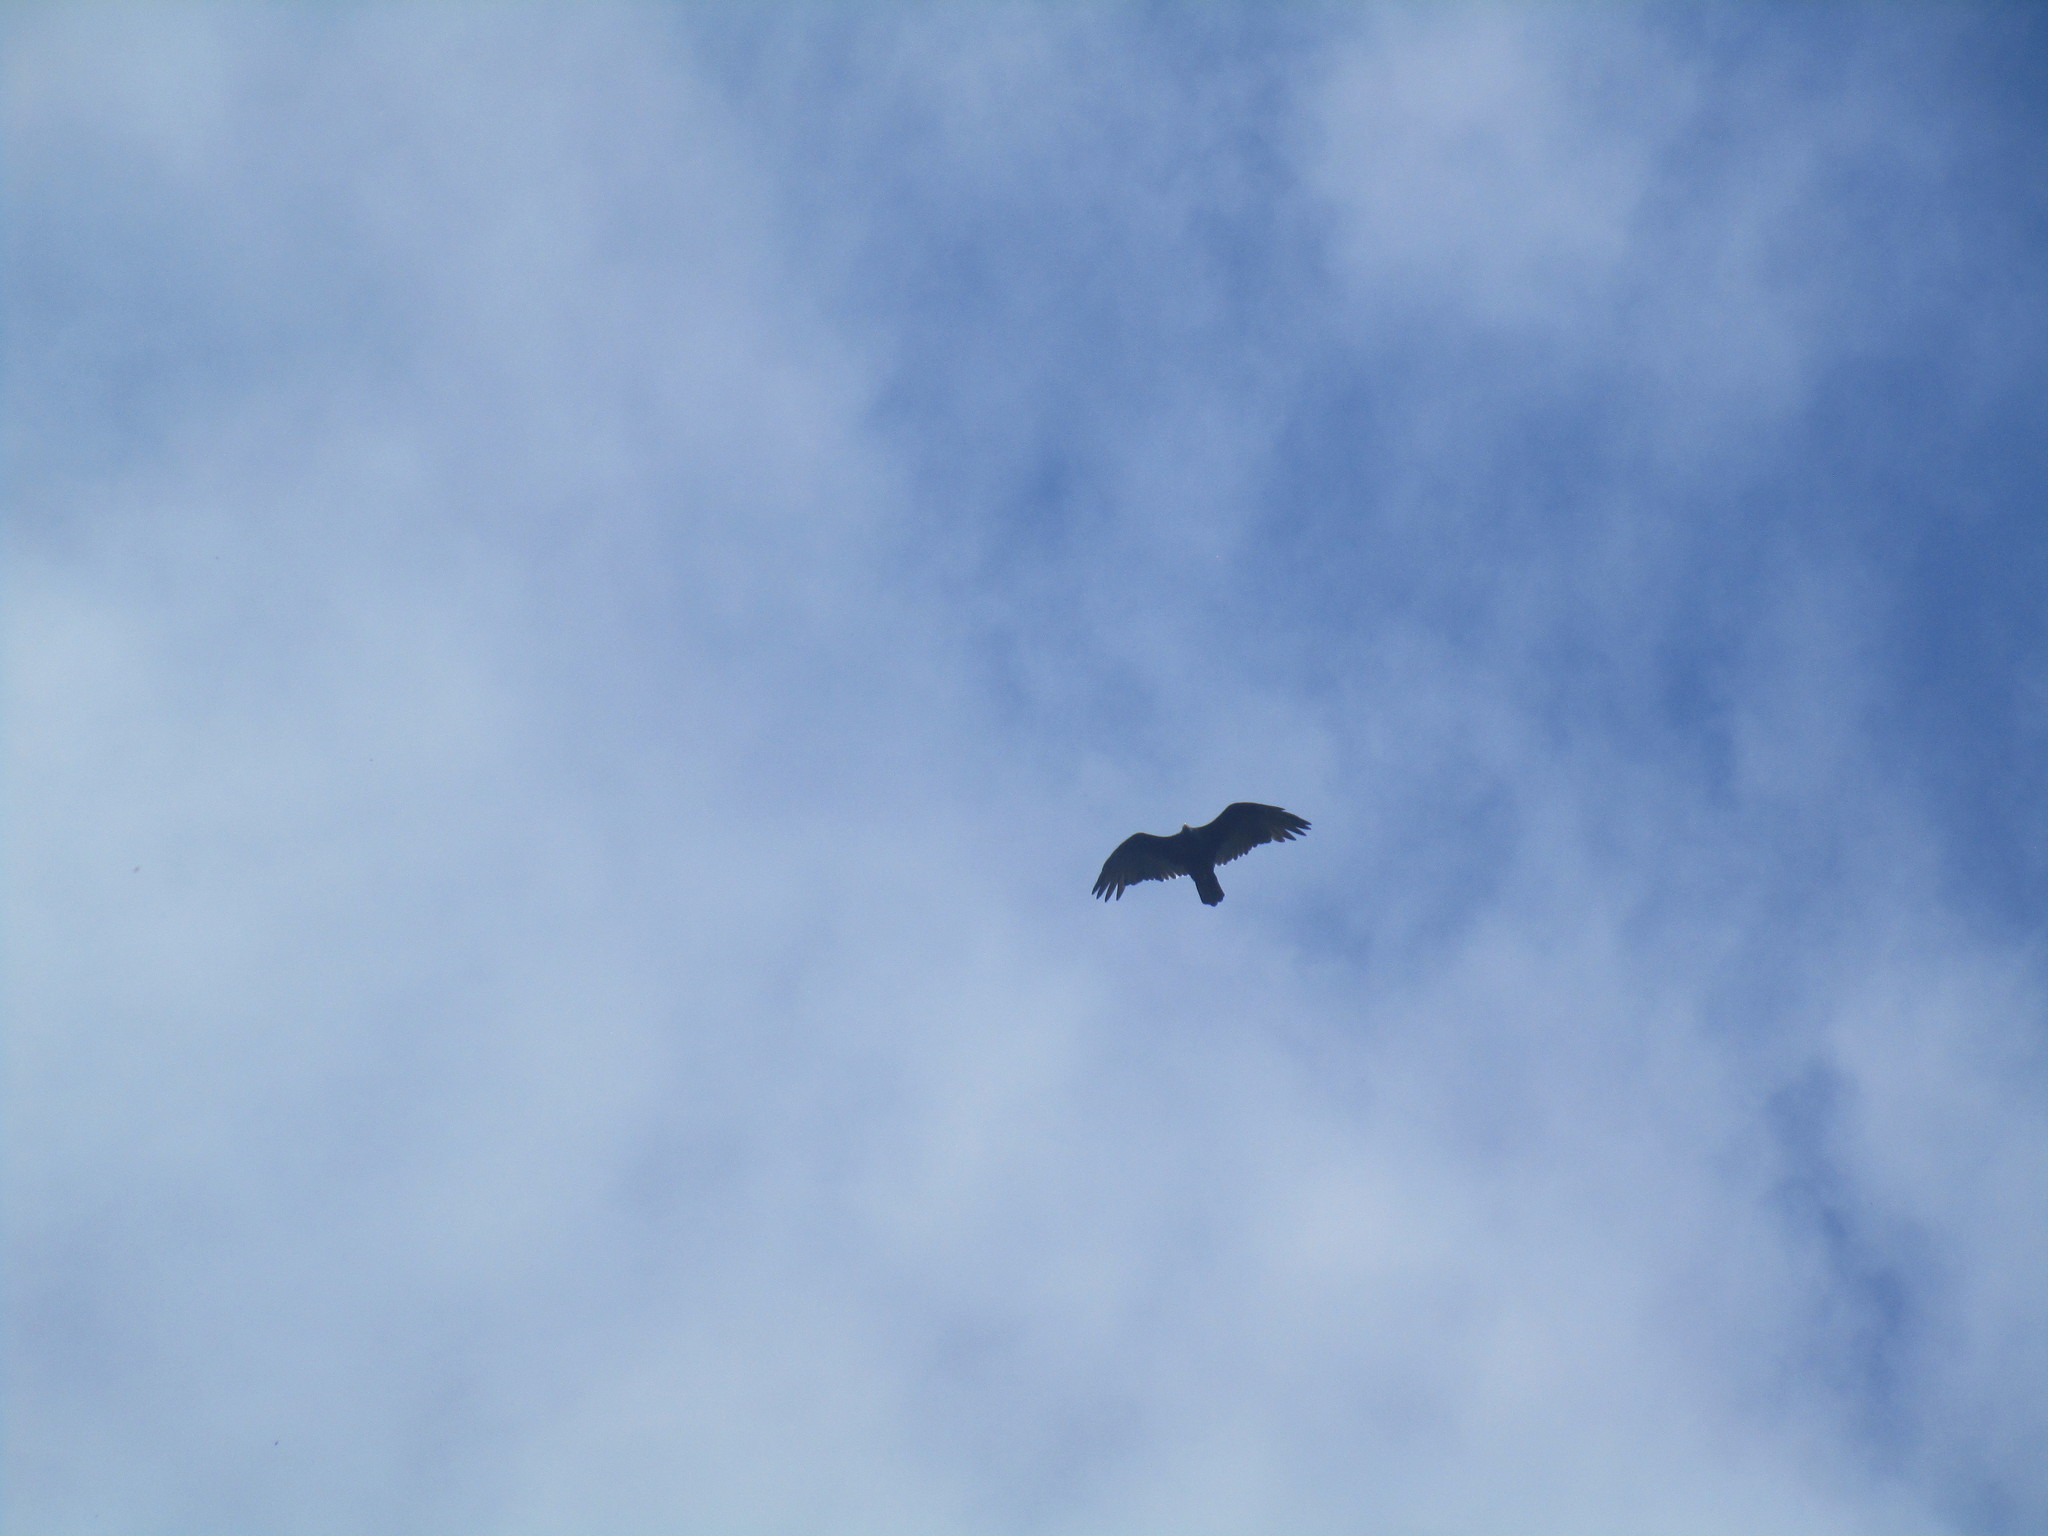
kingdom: Animalia
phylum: Chordata
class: Aves
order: Accipitriformes
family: Cathartidae
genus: Cathartes
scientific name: Cathartes aura
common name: Turkey vulture
